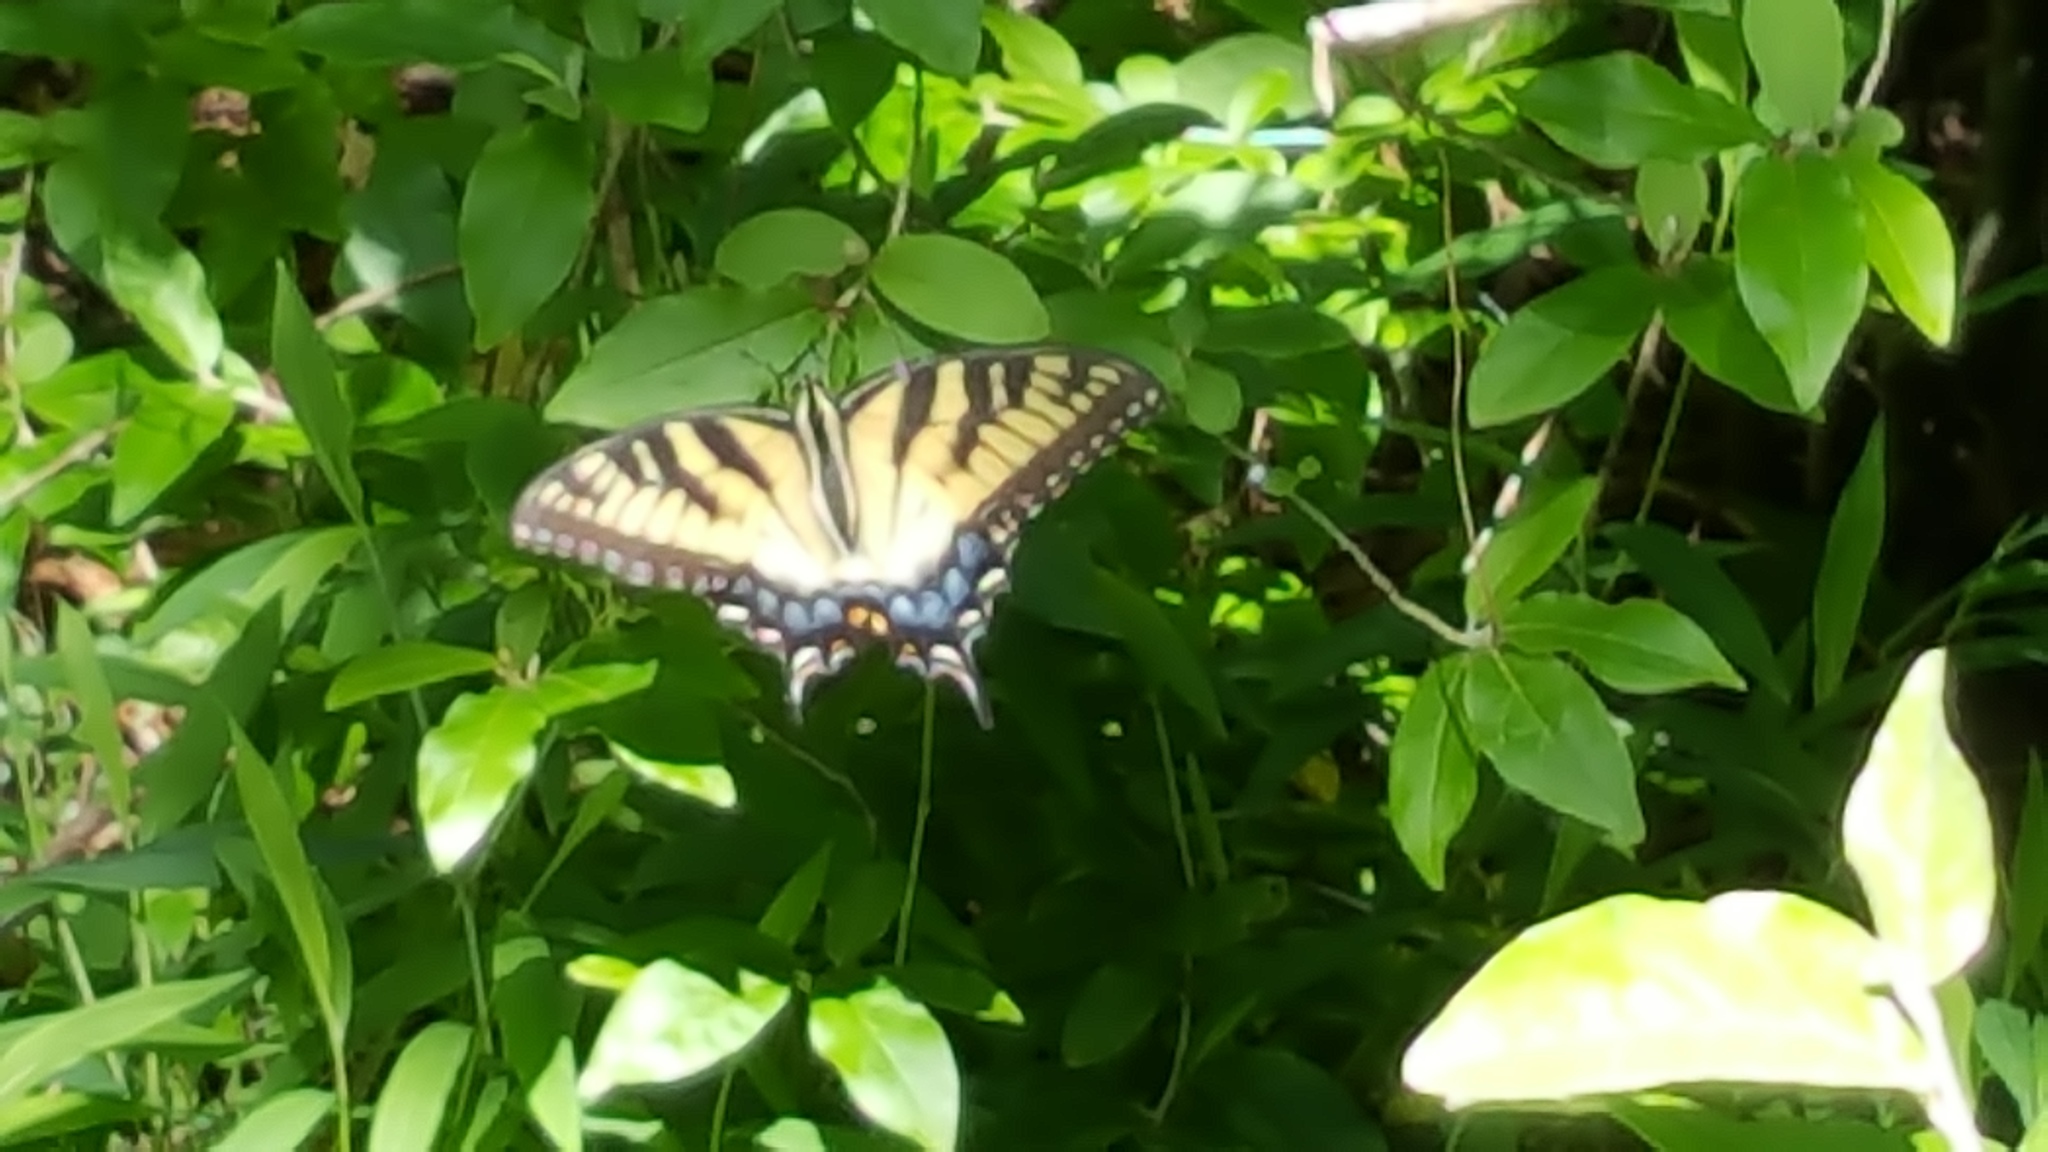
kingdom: Animalia
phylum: Arthropoda
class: Insecta
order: Lepidoptera
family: Papilionidae
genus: Papilio
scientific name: Papilio glaucus
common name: Tiger swallowtail
